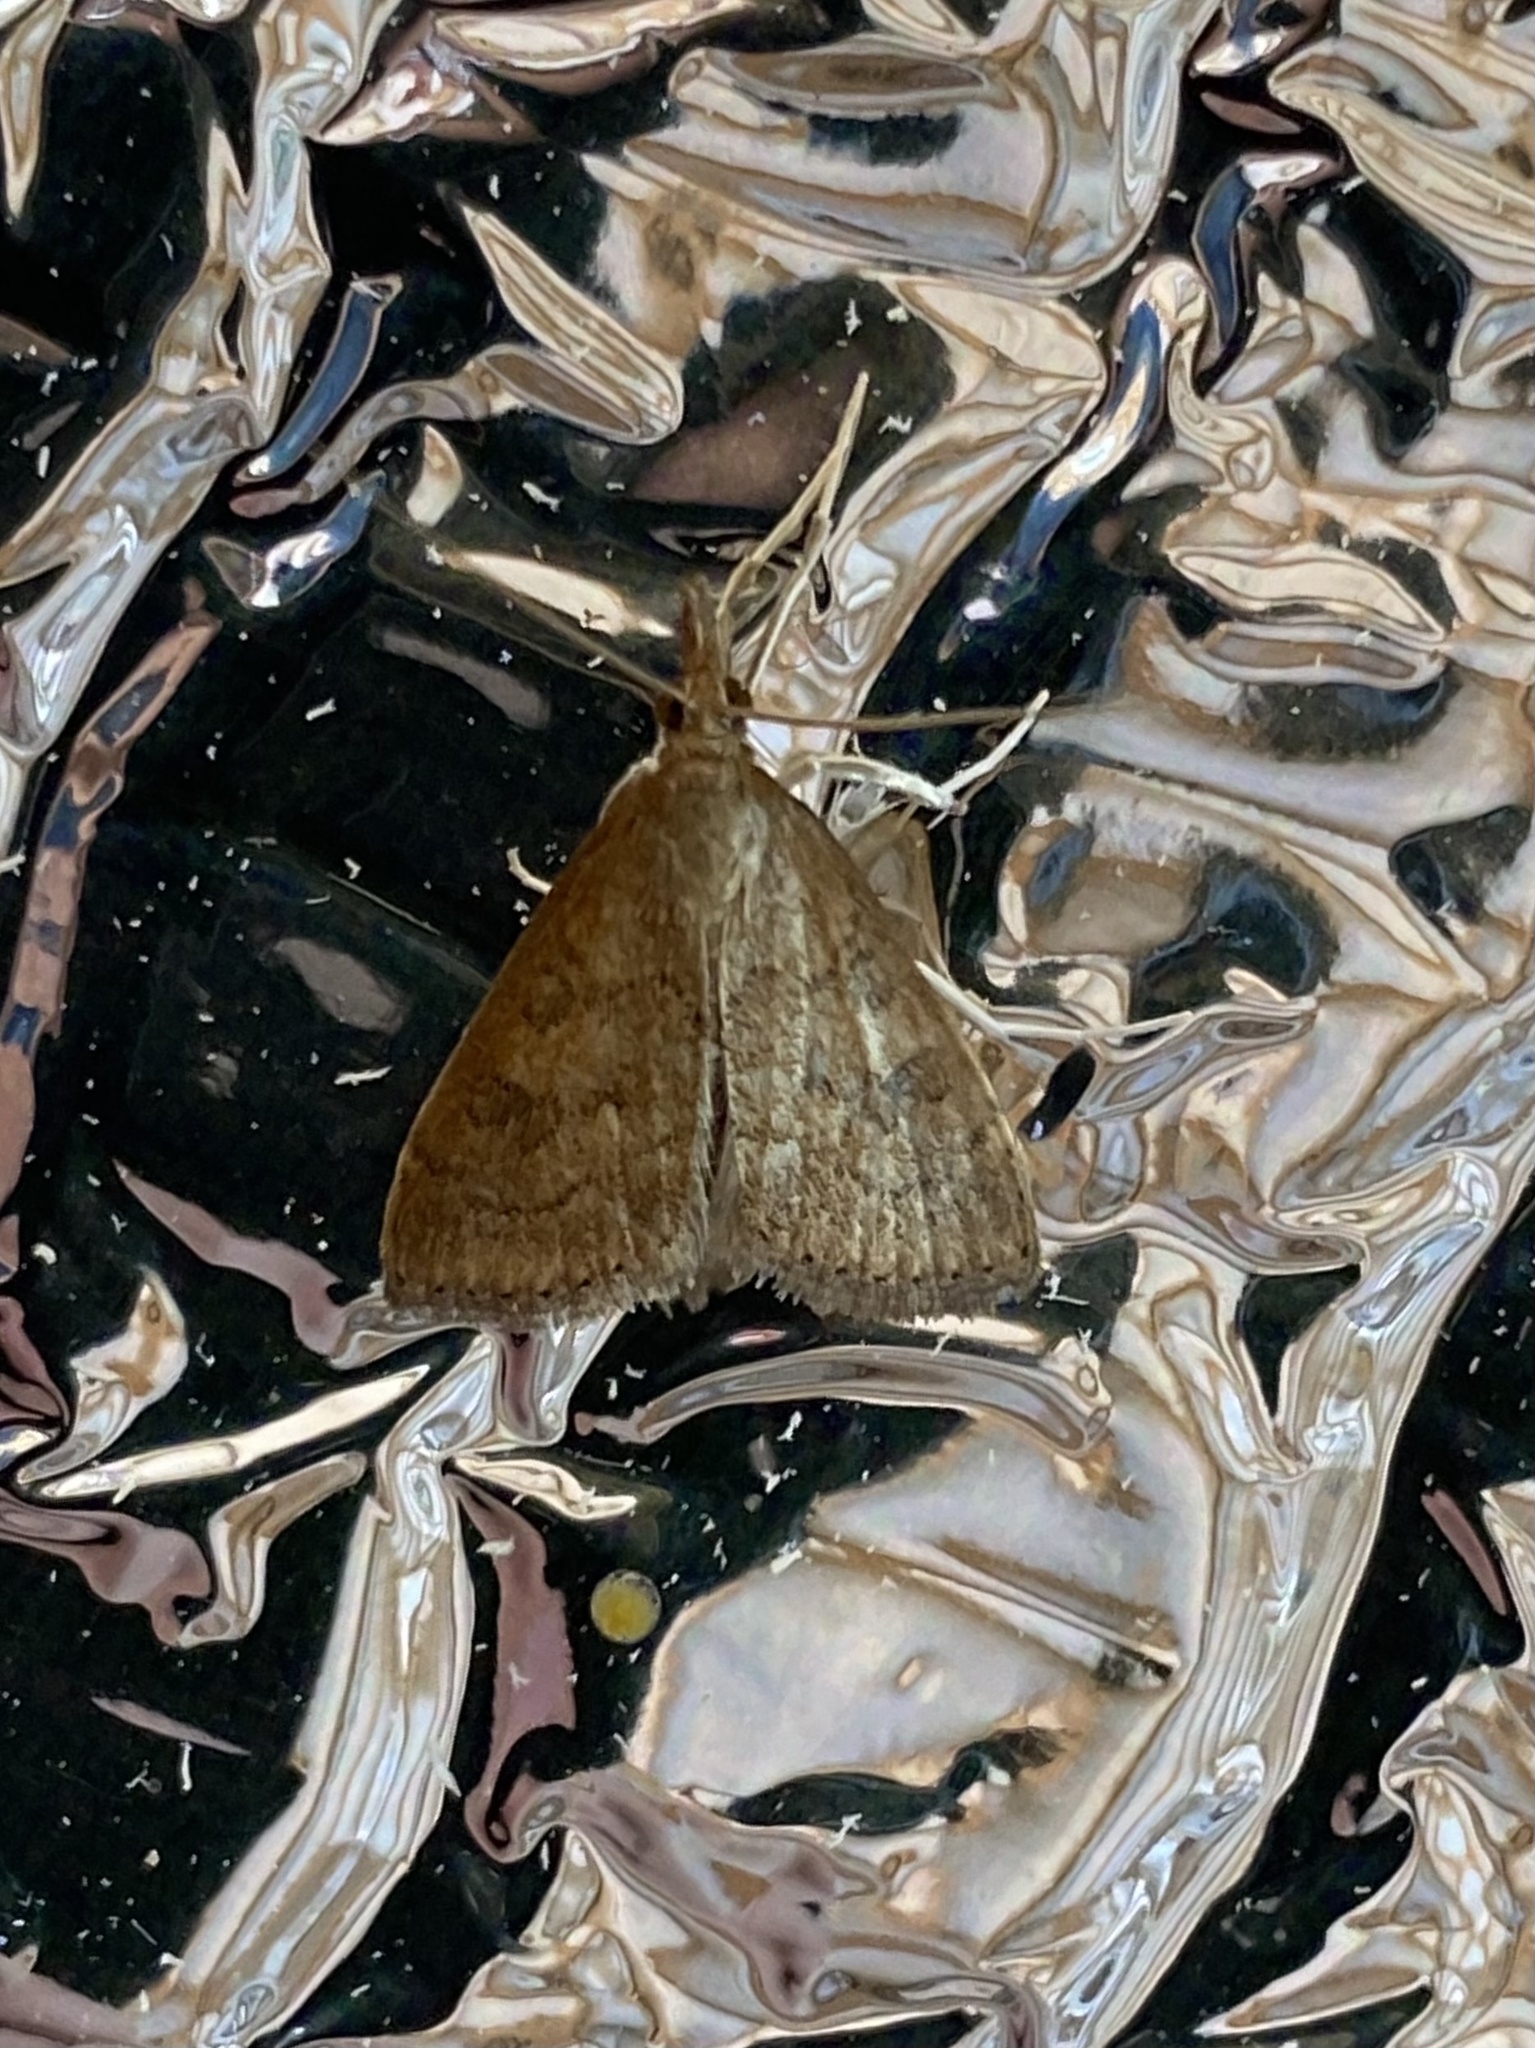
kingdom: Animalia
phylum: Arthropoda
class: Insecta
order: Lepidoptera
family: Crambidae
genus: Udea
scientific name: Udea rubigalis
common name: Celery leaftier moth
